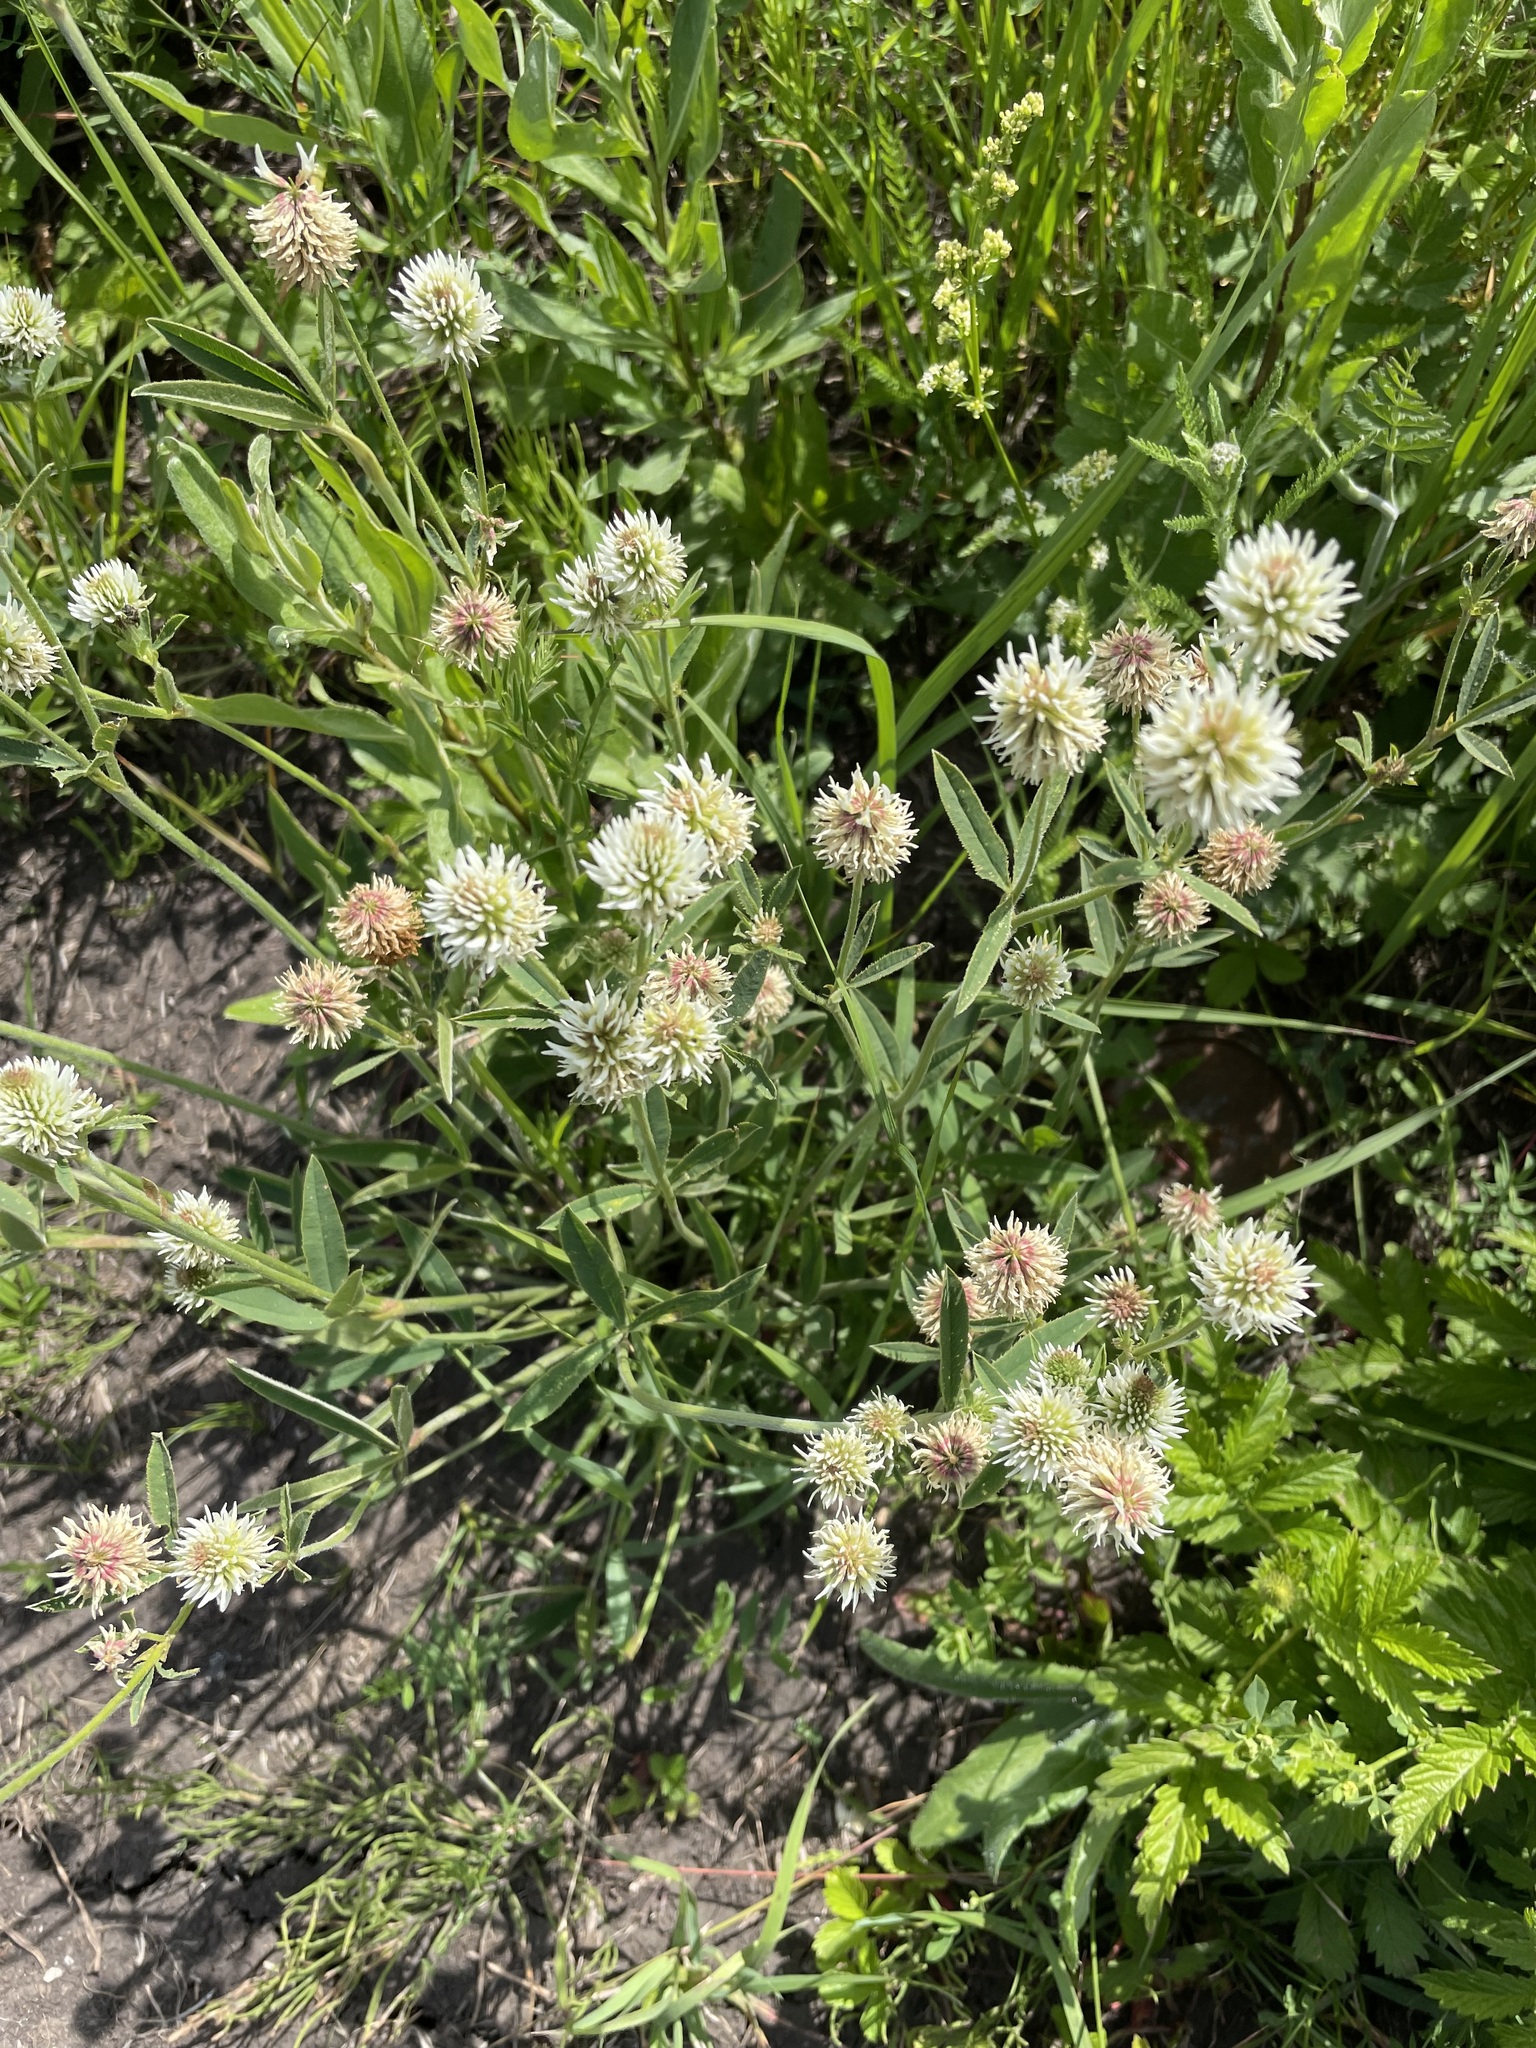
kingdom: Plantae
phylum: Tracheophyta
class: Magnoliopsida
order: Fabales
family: Fabaceae
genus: Trifolium
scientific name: Trifolium montanum
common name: Mountain clover
